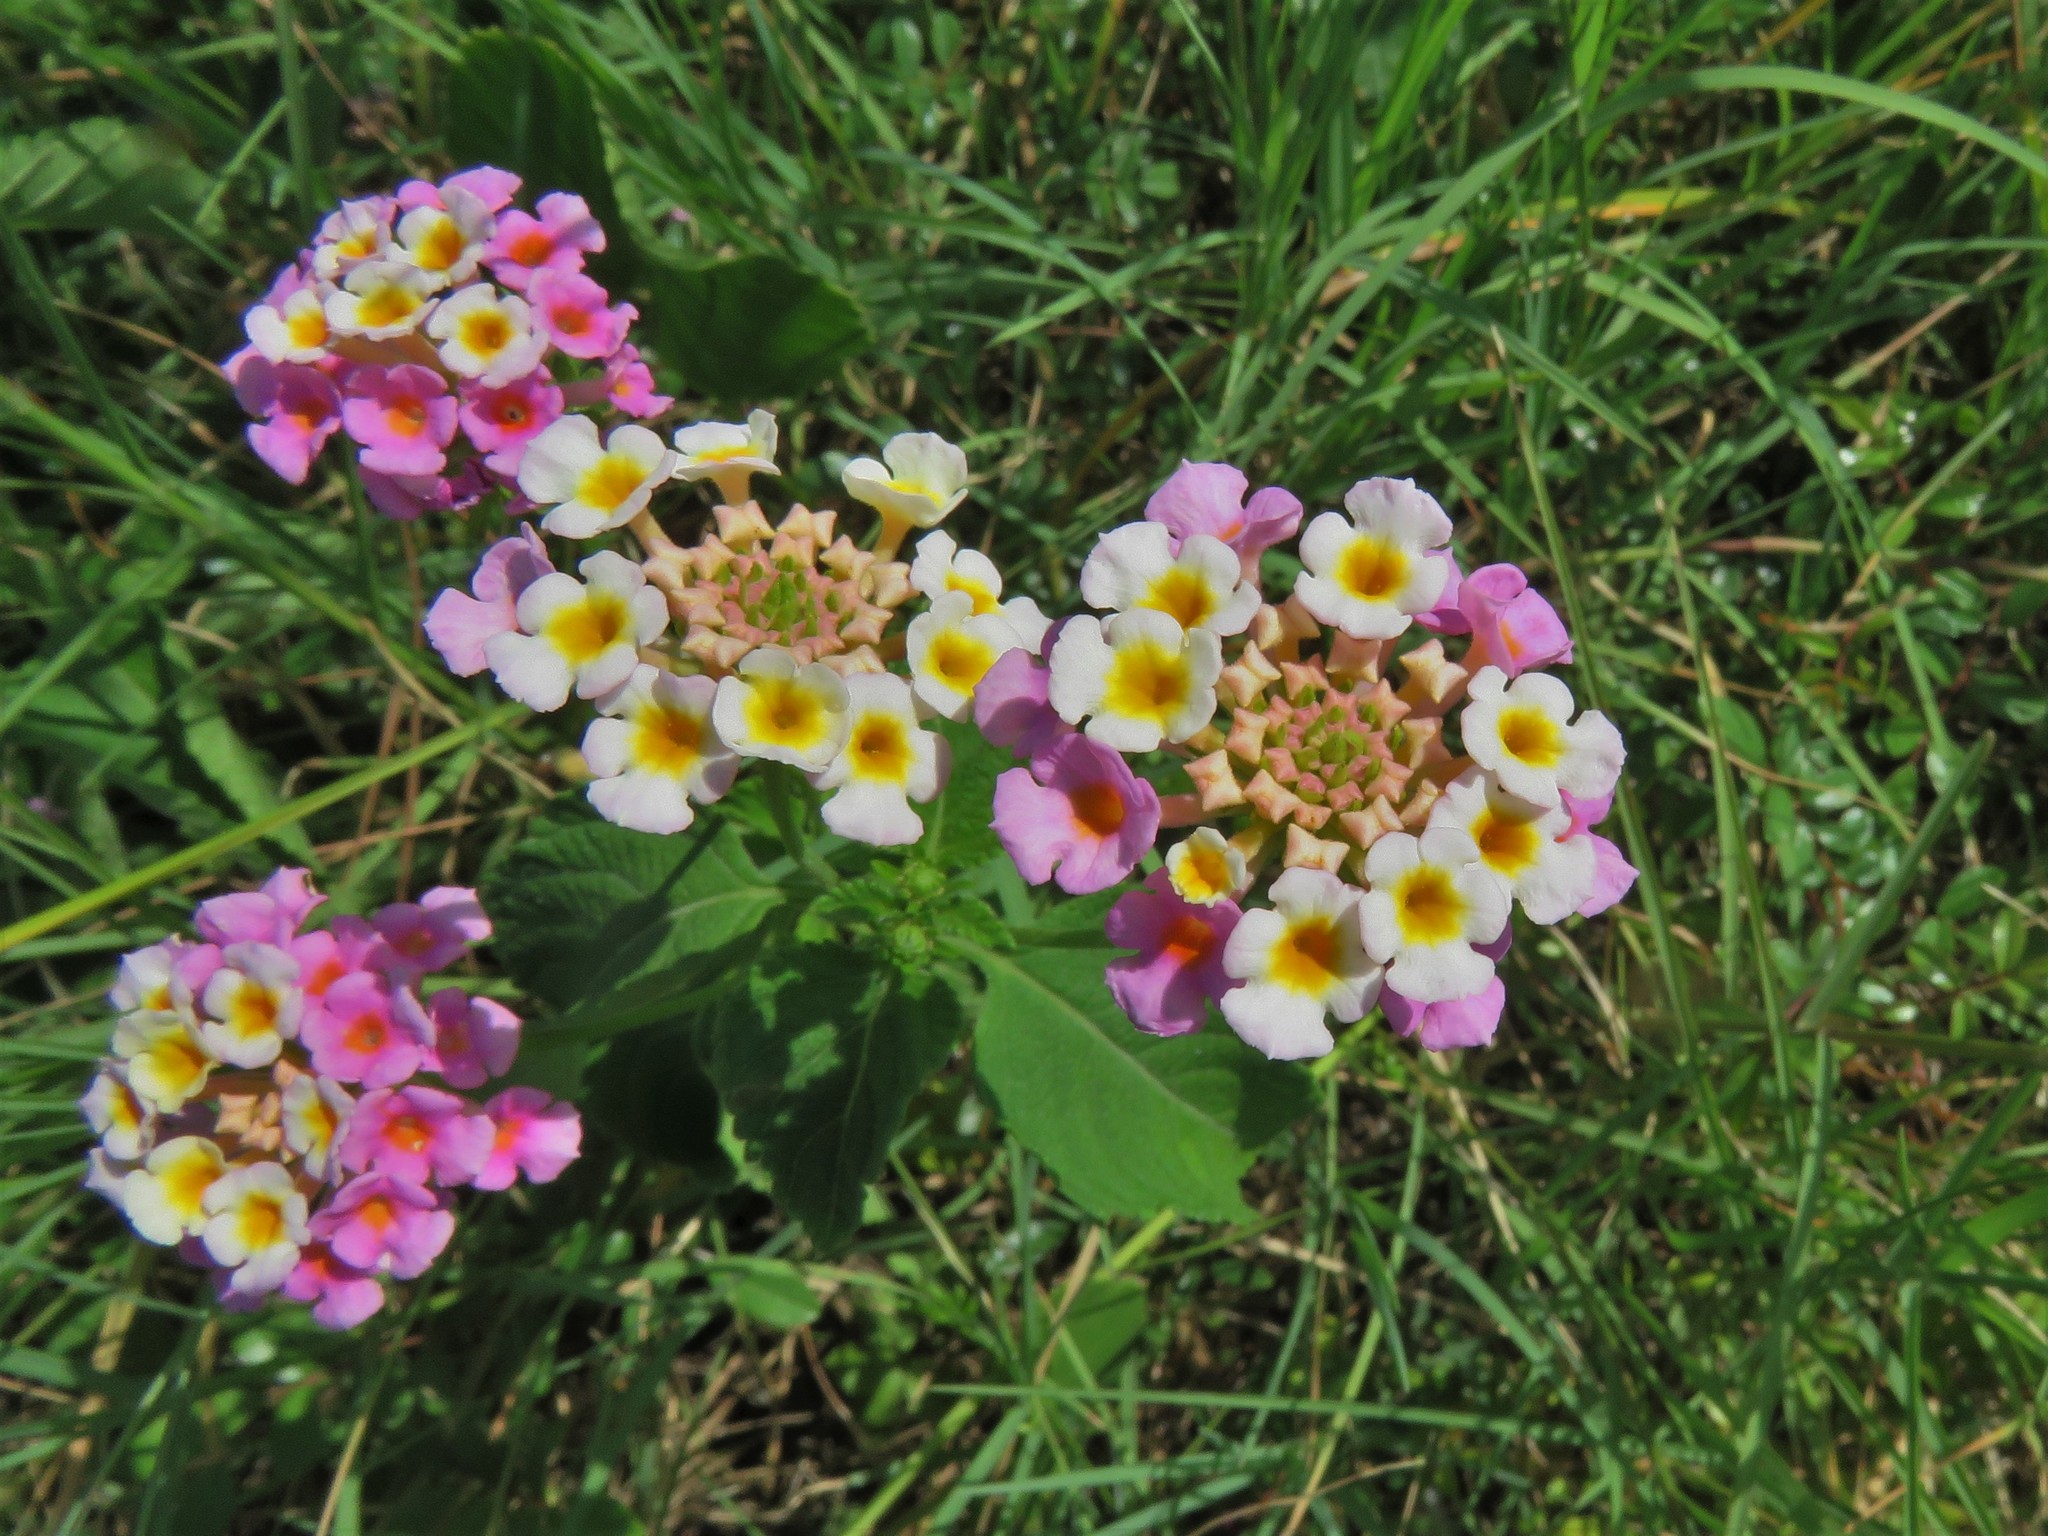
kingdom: Plantae
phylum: Tracheophyta
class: Magnoliopsida
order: Lamiales
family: Verbenaceae
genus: Lantana
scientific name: Lantana strigocamara
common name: Lantana
